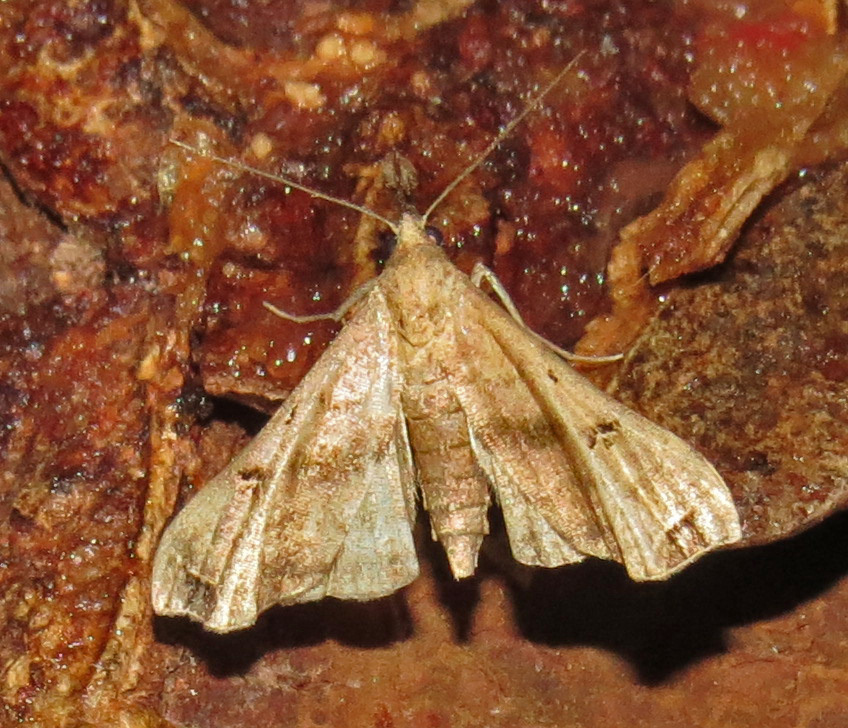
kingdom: Animalia
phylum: Arthropoda
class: Insecta
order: Lepidoptera
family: Erebidae
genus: Palthis
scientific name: Palthis asopialis
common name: Faint-spotted palthis moth
